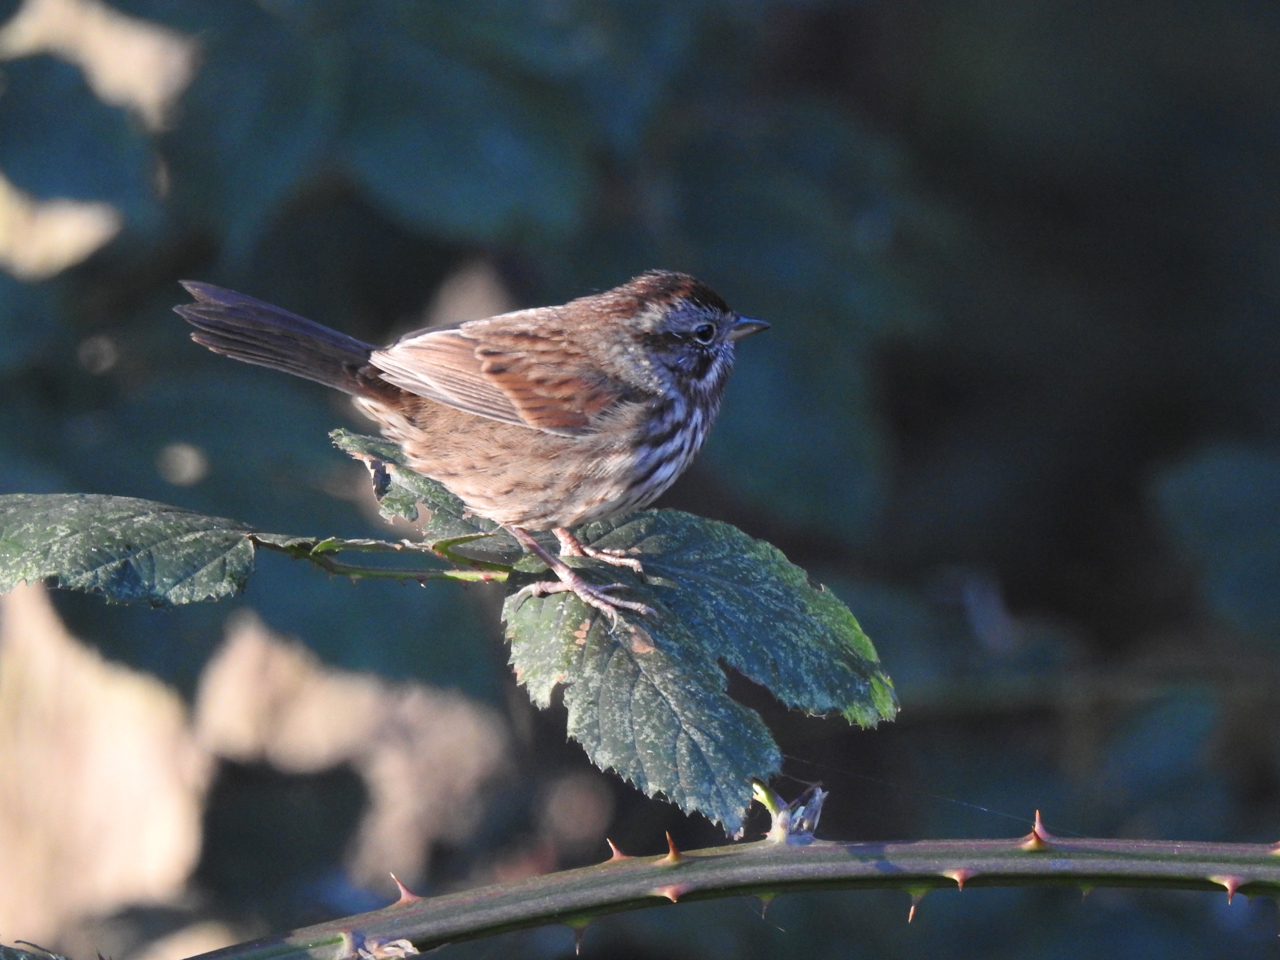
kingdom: Animalia
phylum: Chordata
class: Aves
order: Passeriformes
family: Passerellidae
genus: Melospiza
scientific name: Melospiza melodia
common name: Song sparrow
